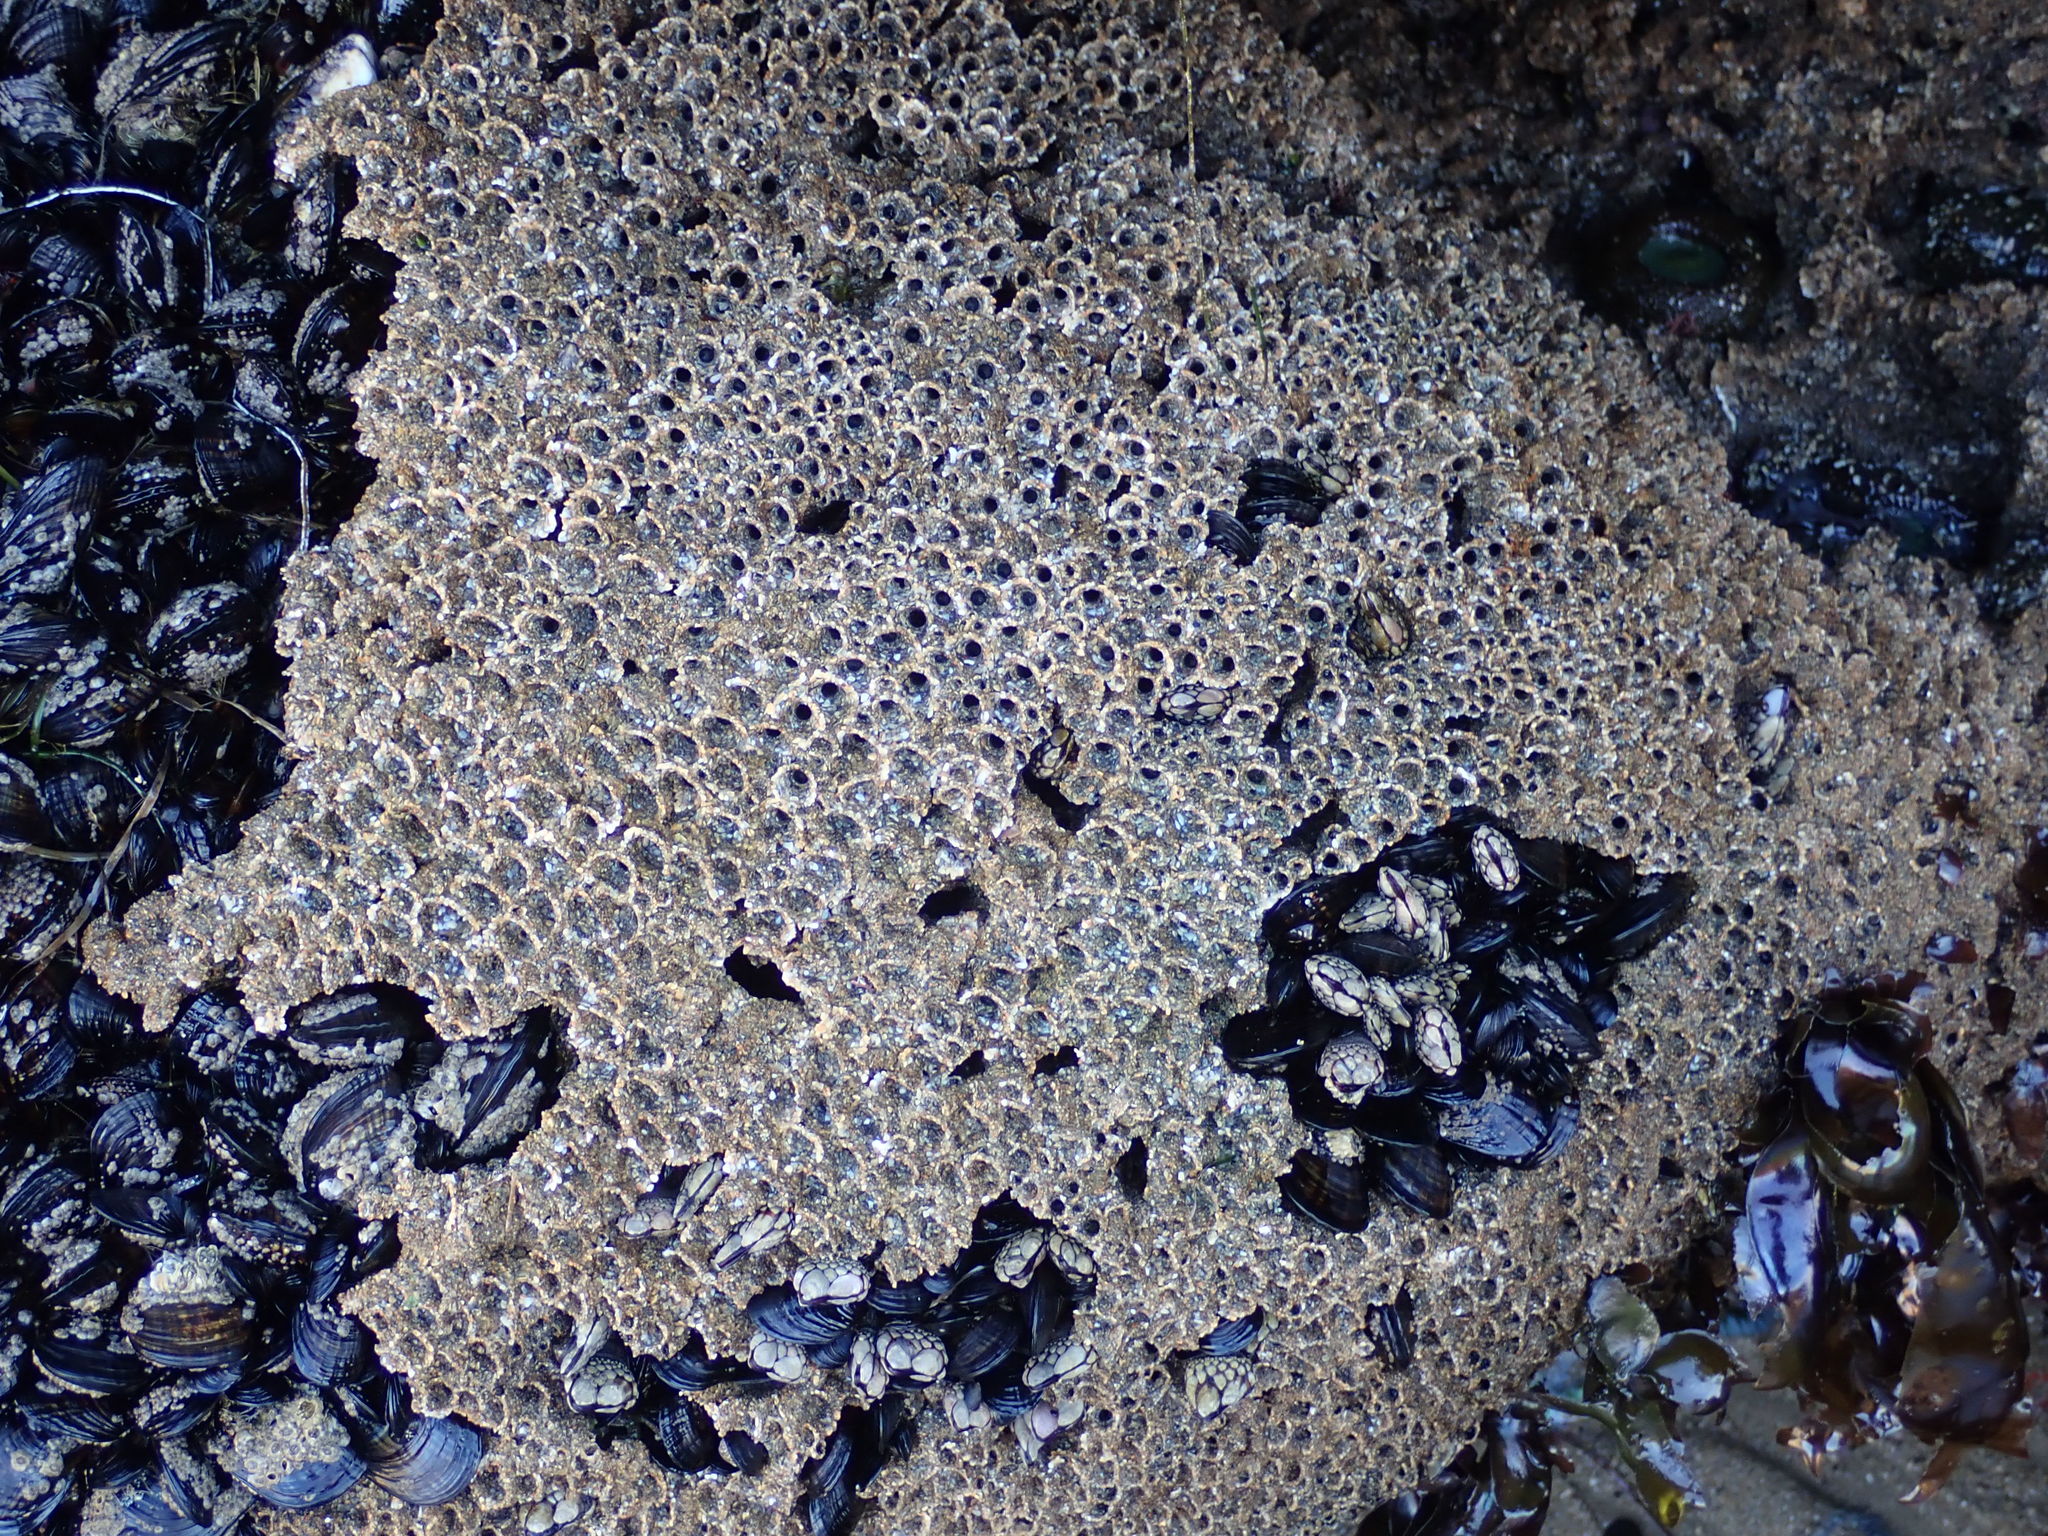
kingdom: Animalia
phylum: Annelida
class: Polychaeta
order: Sabellida
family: Sabellariidae
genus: Phragmatopoma
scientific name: Phragmatopoma californica
